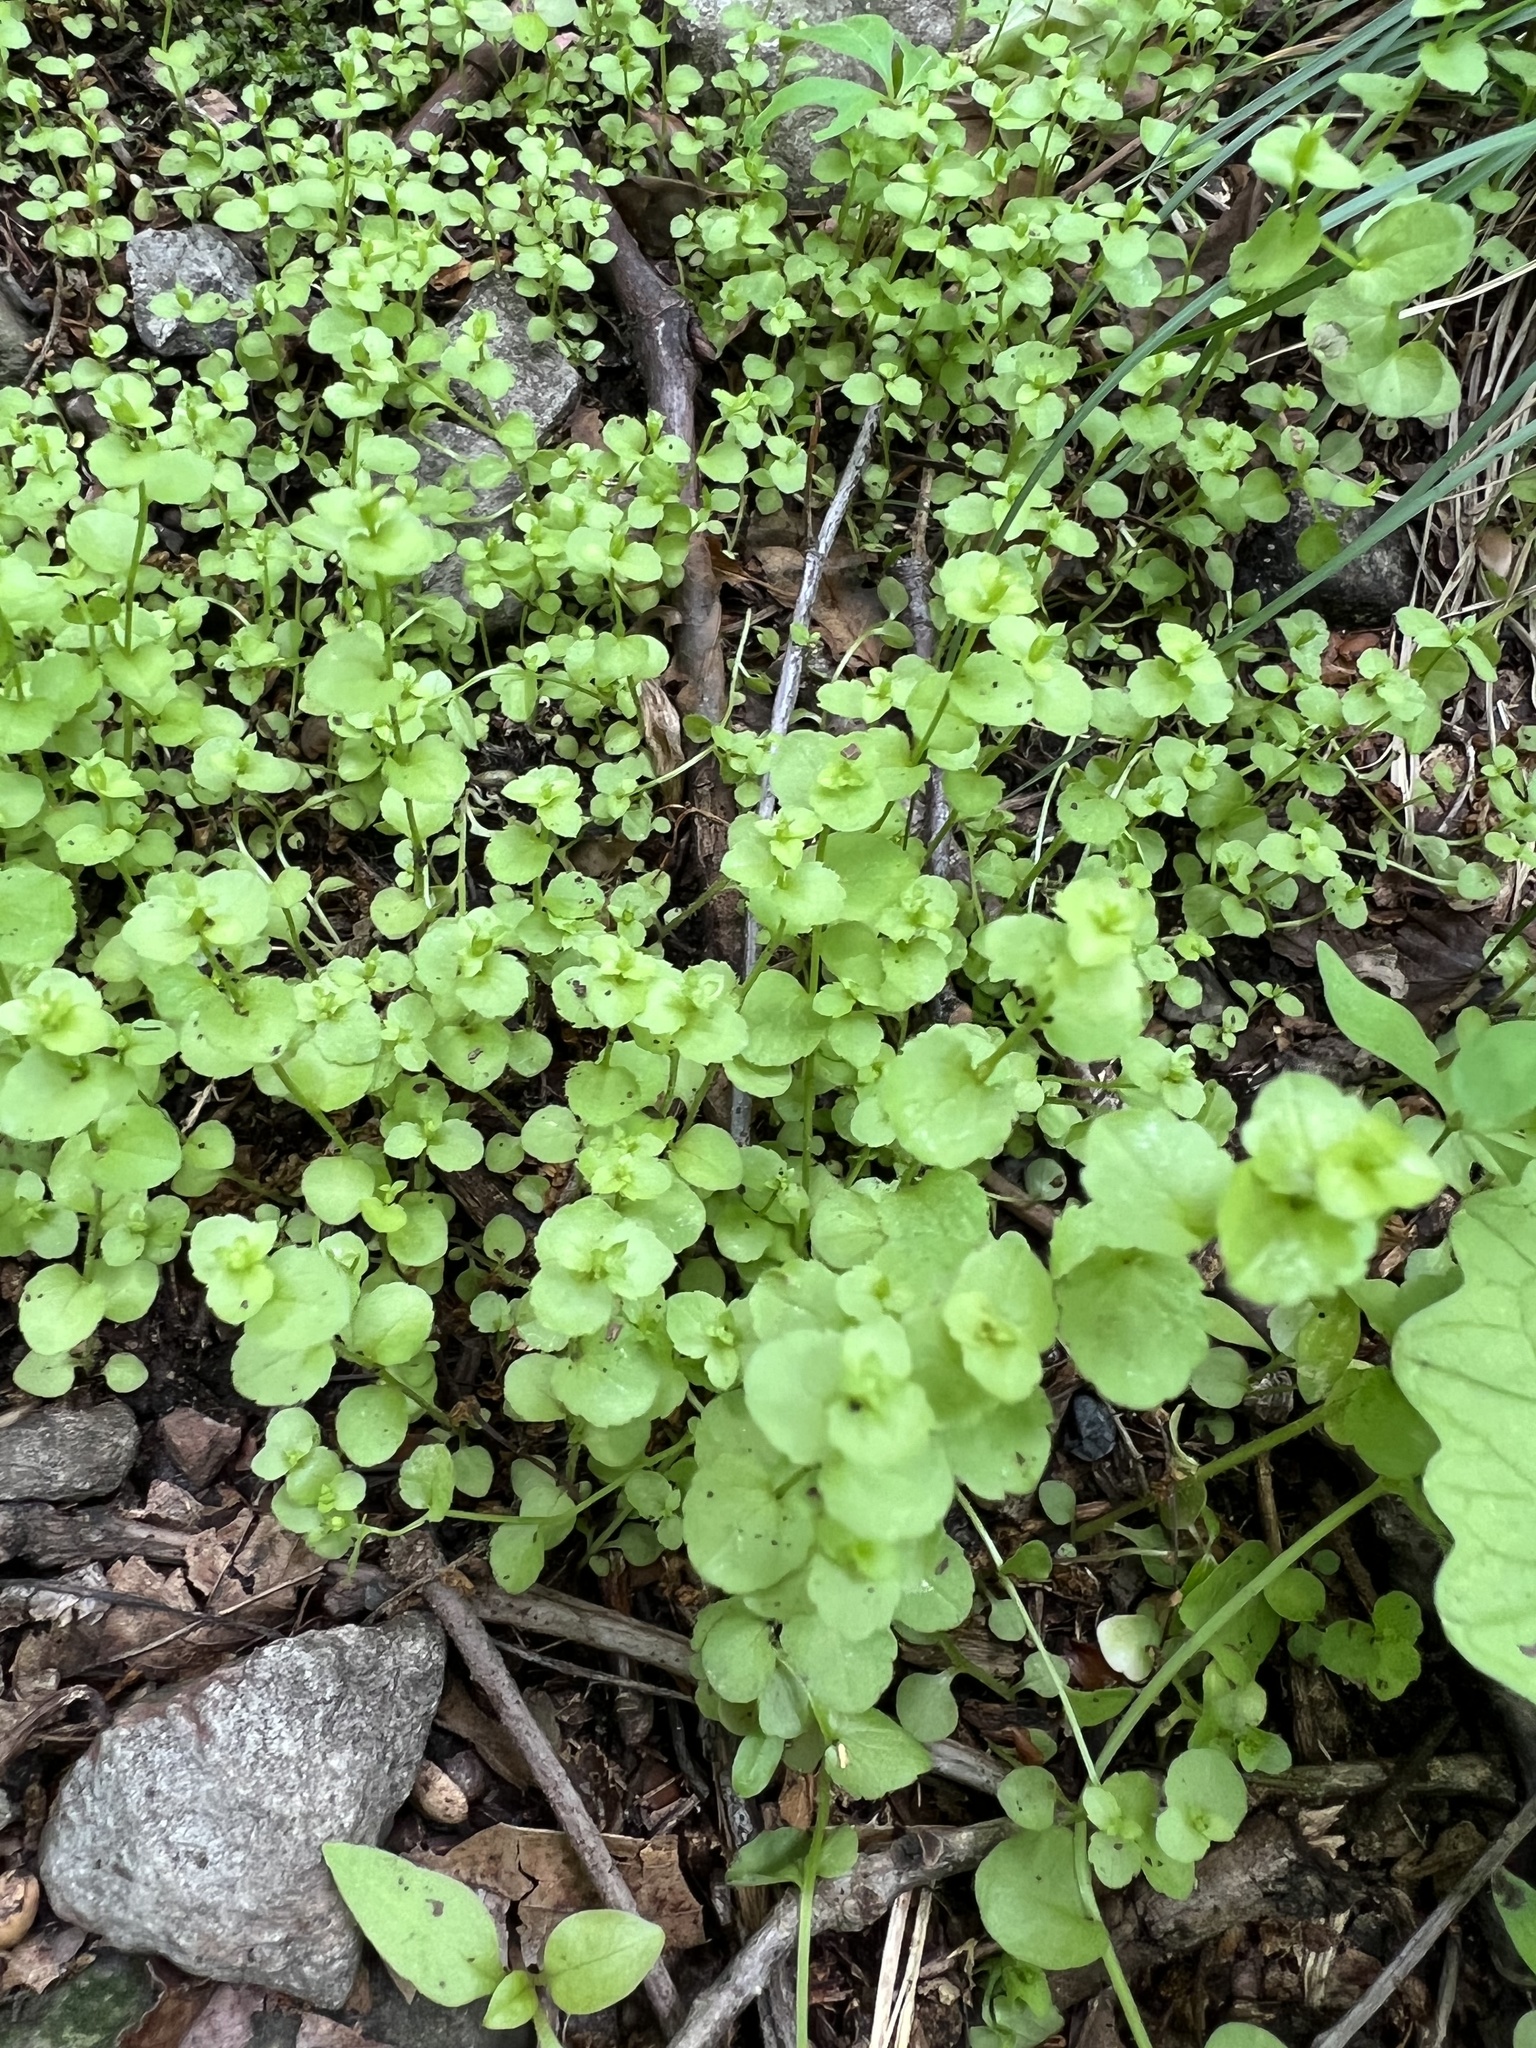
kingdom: Plantae
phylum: Tracheophyta
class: Magnoliopsida
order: Asterales
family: Campanulaceae
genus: Triodanis
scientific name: Triodanis perfoliata
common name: Clasping venus' looking-glass
